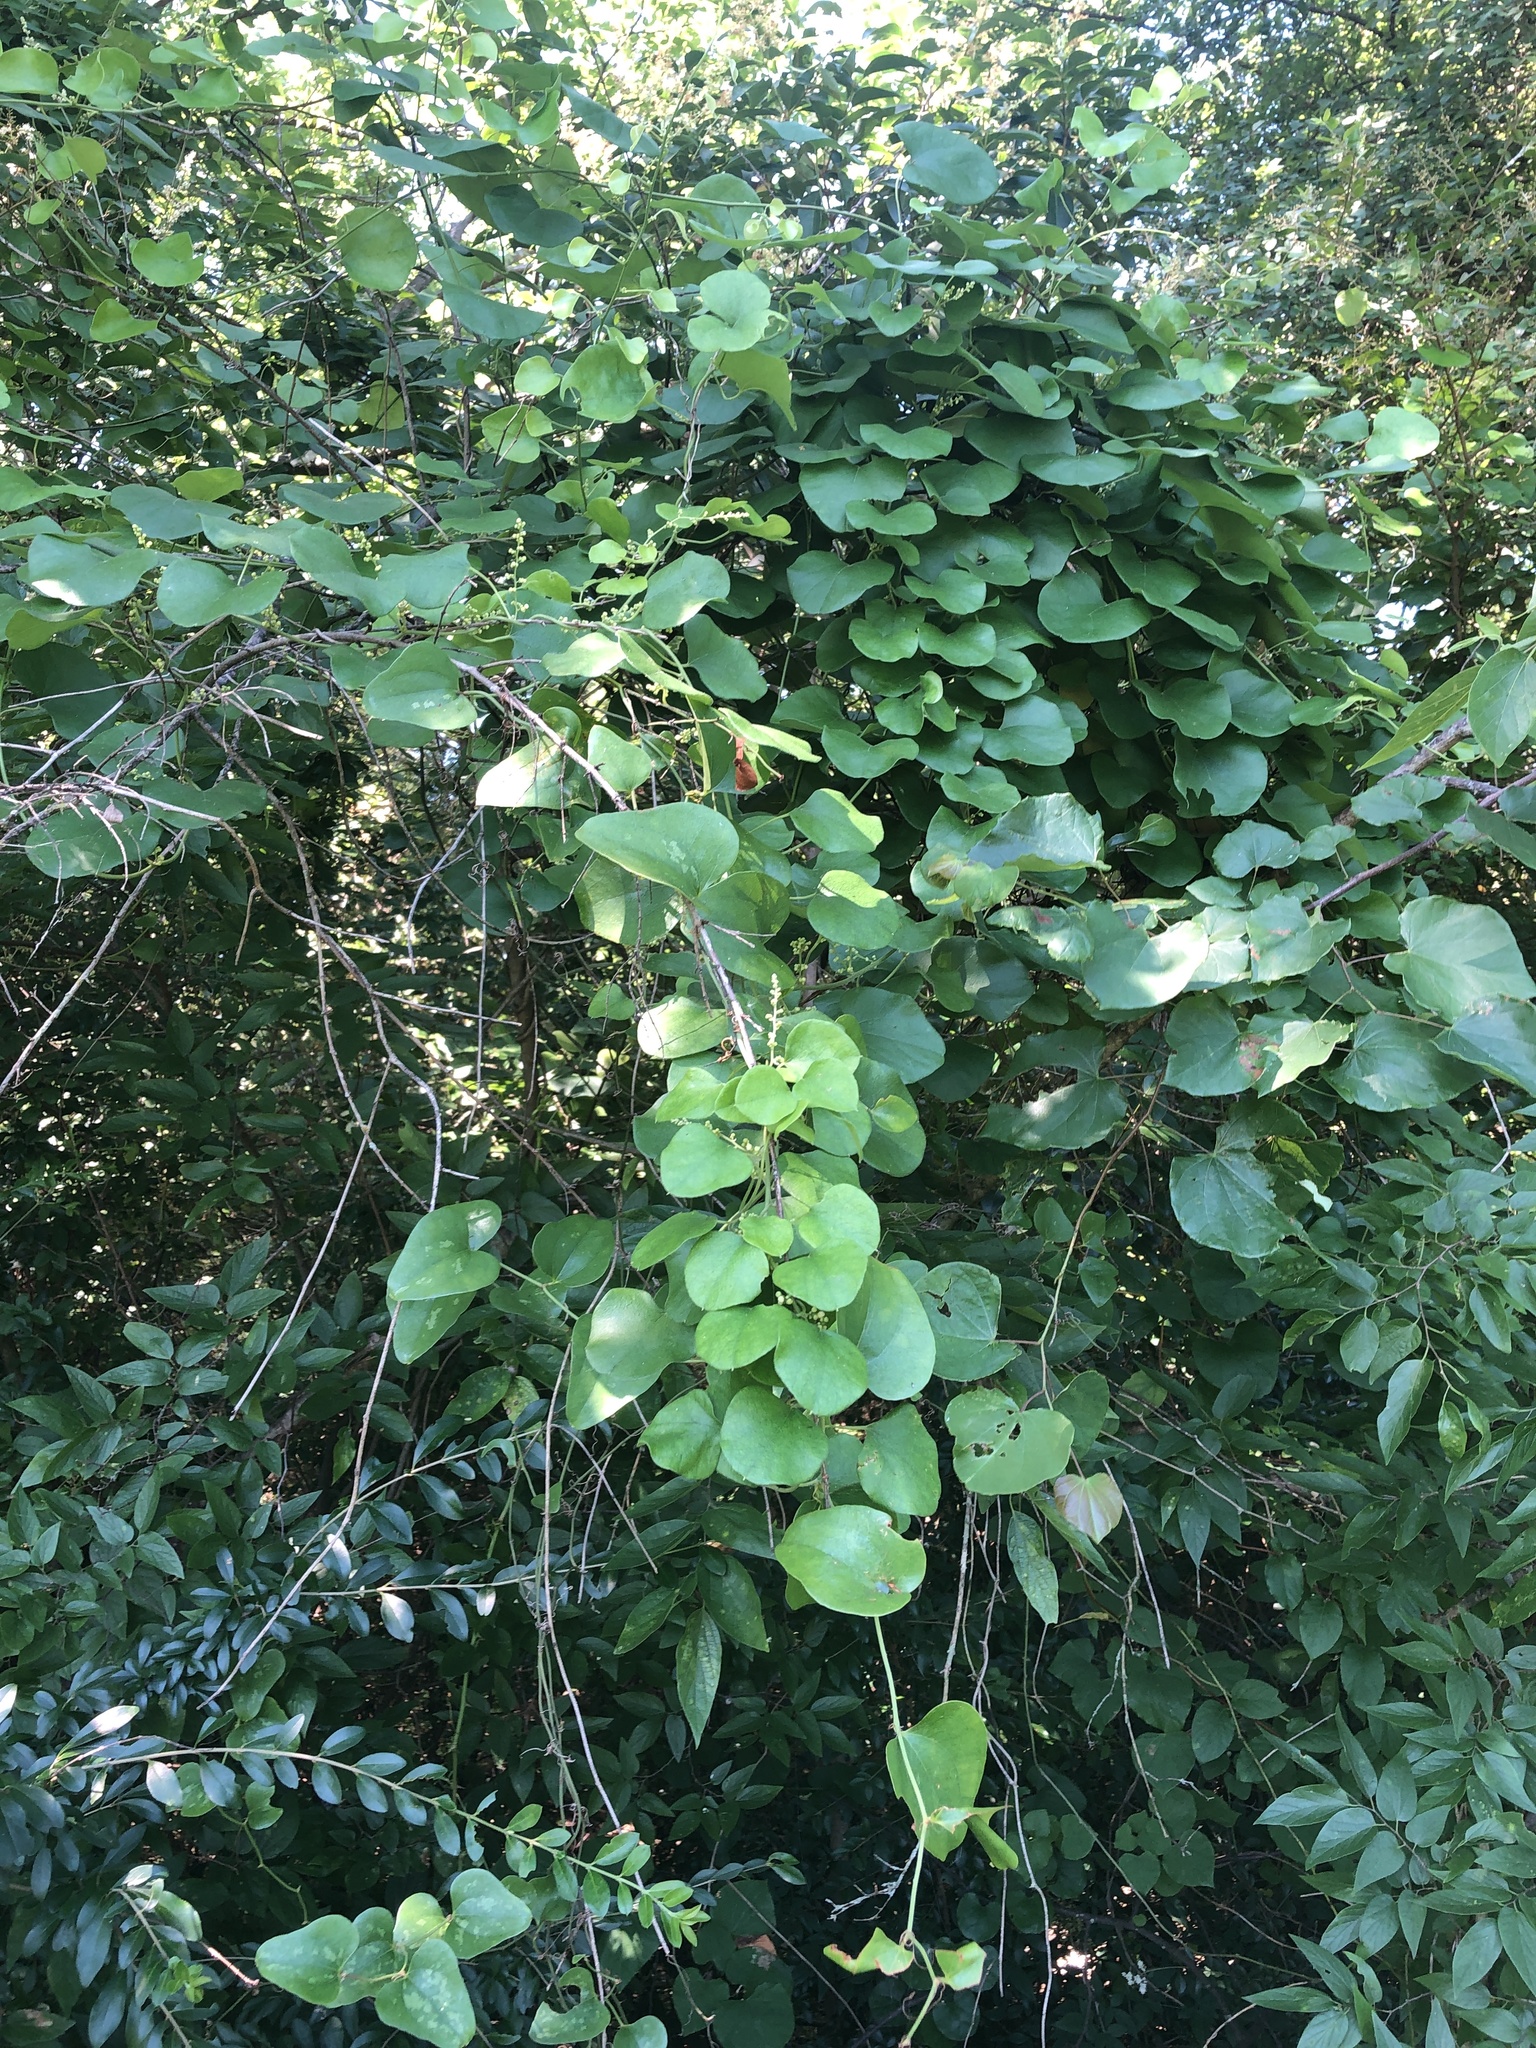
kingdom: Plantae
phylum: Tracheophyta
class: Magnoliopsida
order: Ranunculales
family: Menispermaceae
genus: Cocculus
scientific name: Cocculus carolinus
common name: Carolina moonseed
